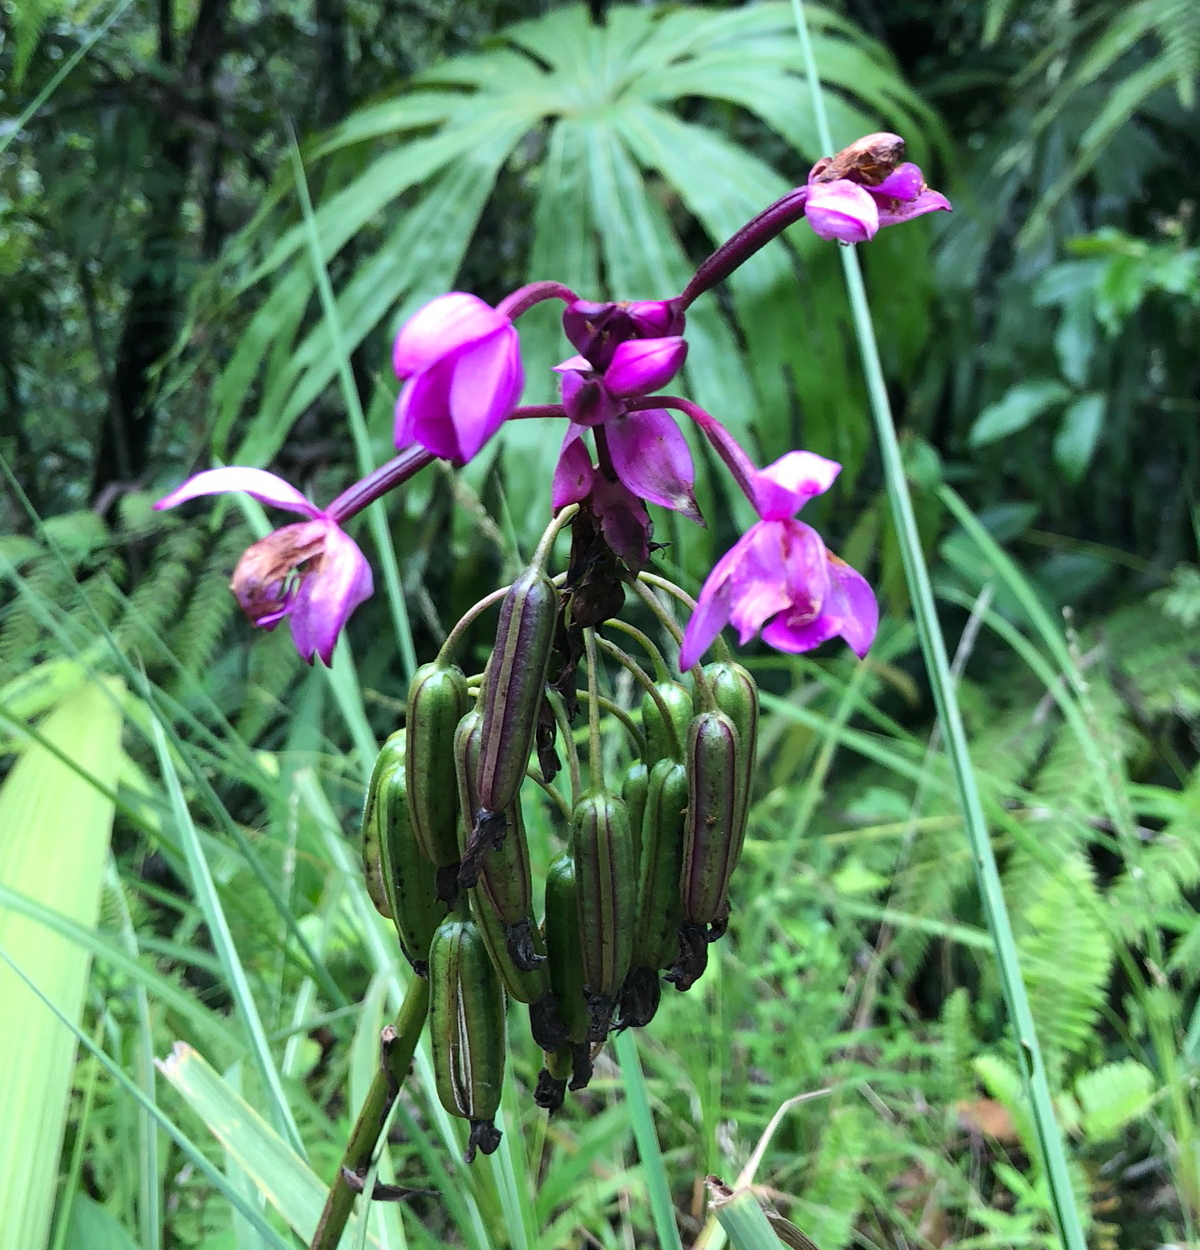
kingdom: Plantae
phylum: Tracheophyta
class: Liliopsida
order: Asparagales
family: Orchidaceae
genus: Spathoglottis
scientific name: Spathoglottis plicata
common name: Philippine ground orchid
